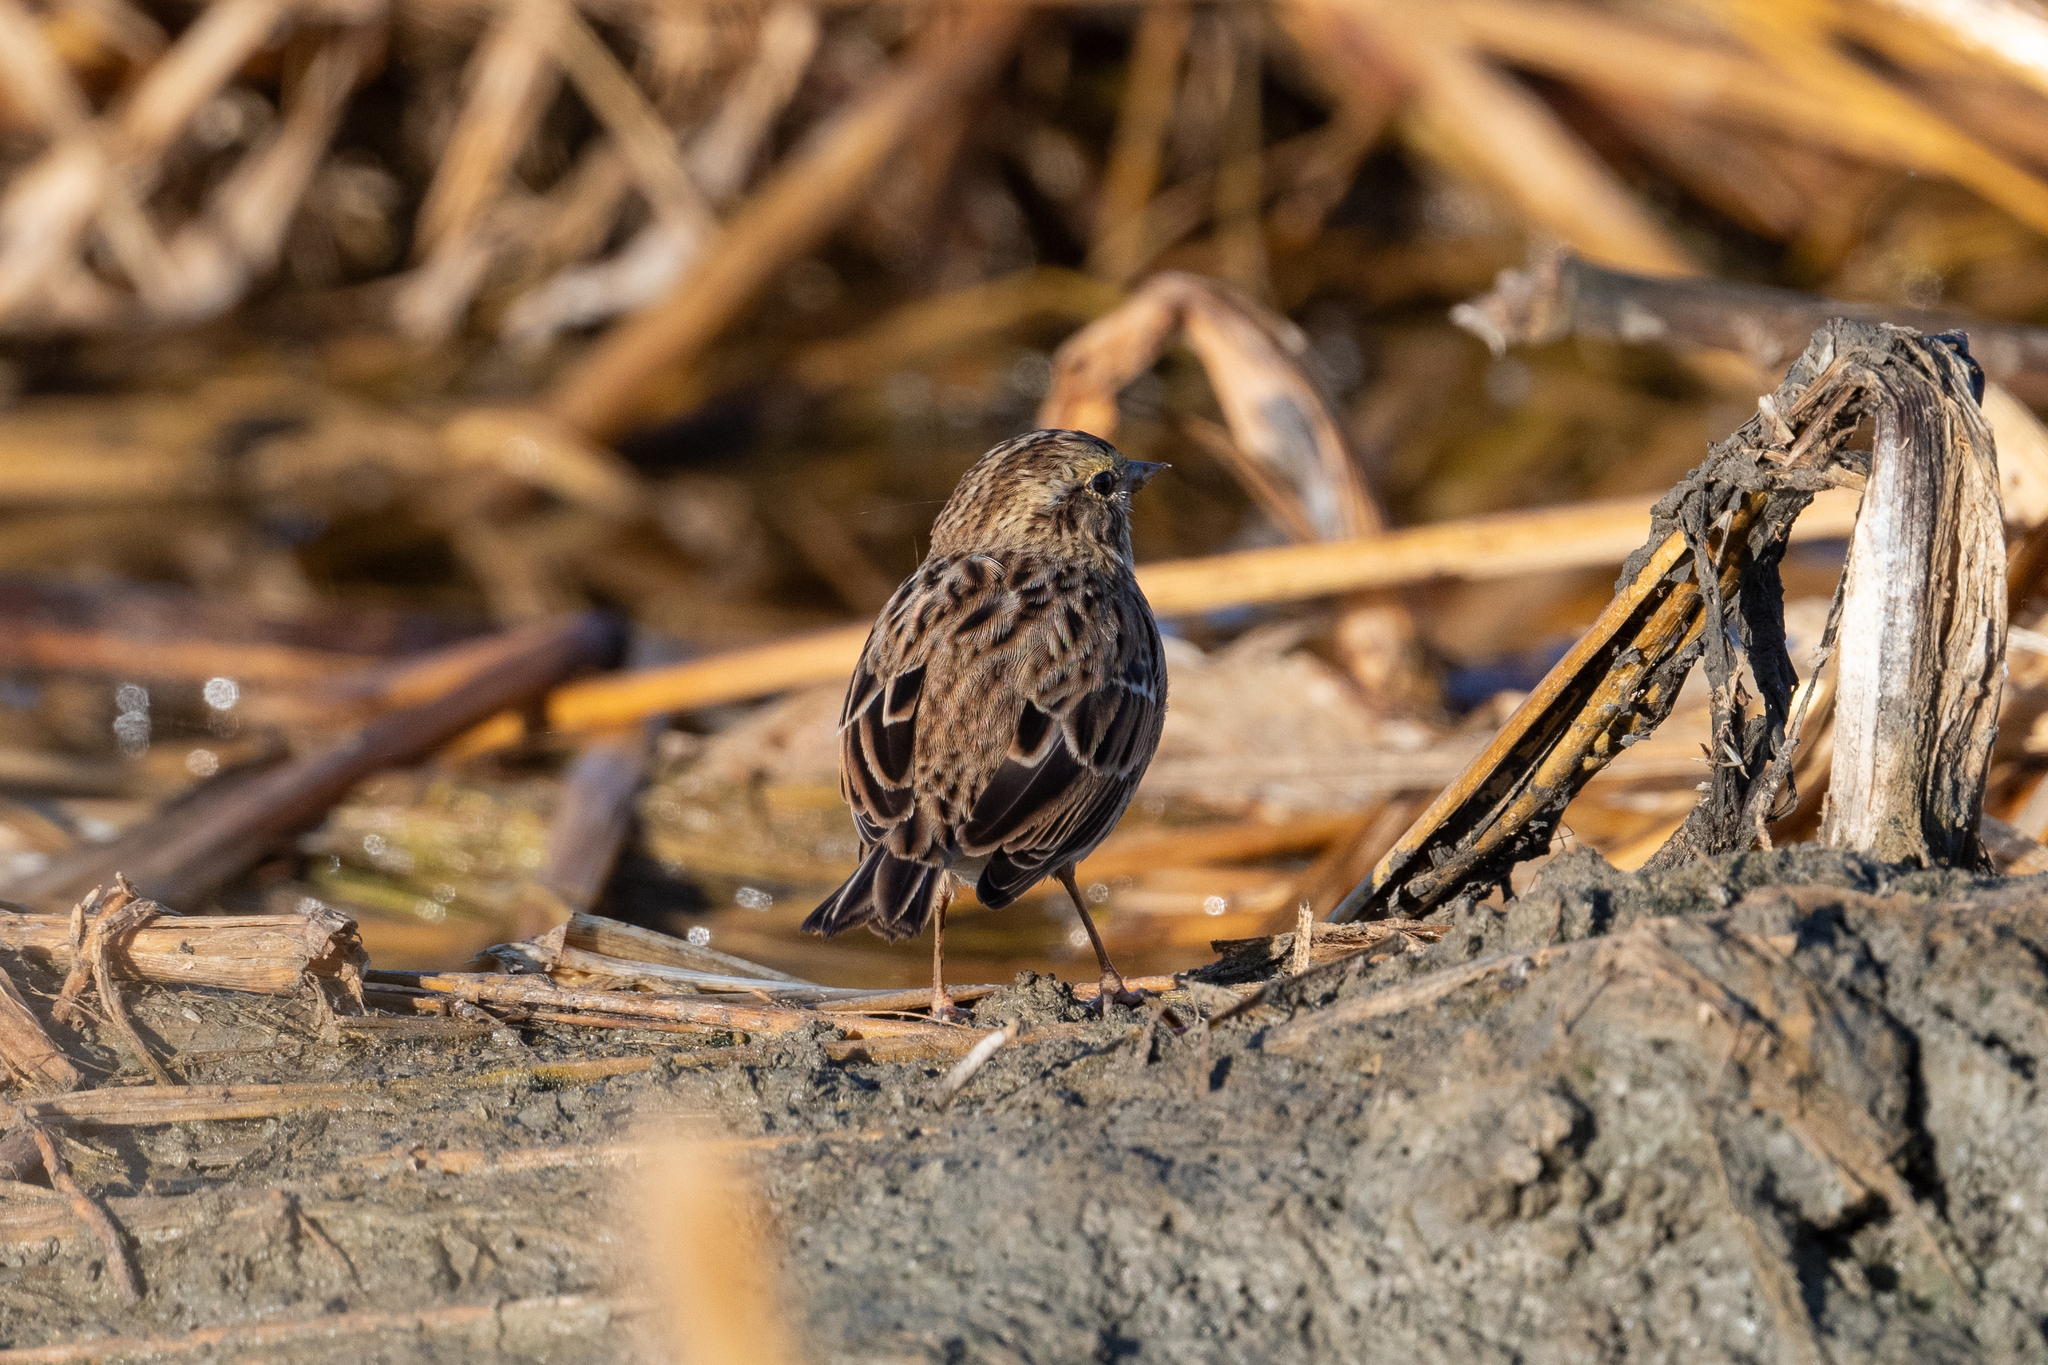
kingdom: Animalia
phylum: Chordata
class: Aves
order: Passeriformes
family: Passerellidae
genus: Passerculus
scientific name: Passerculus sandwichensis
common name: Savannah sparrow
